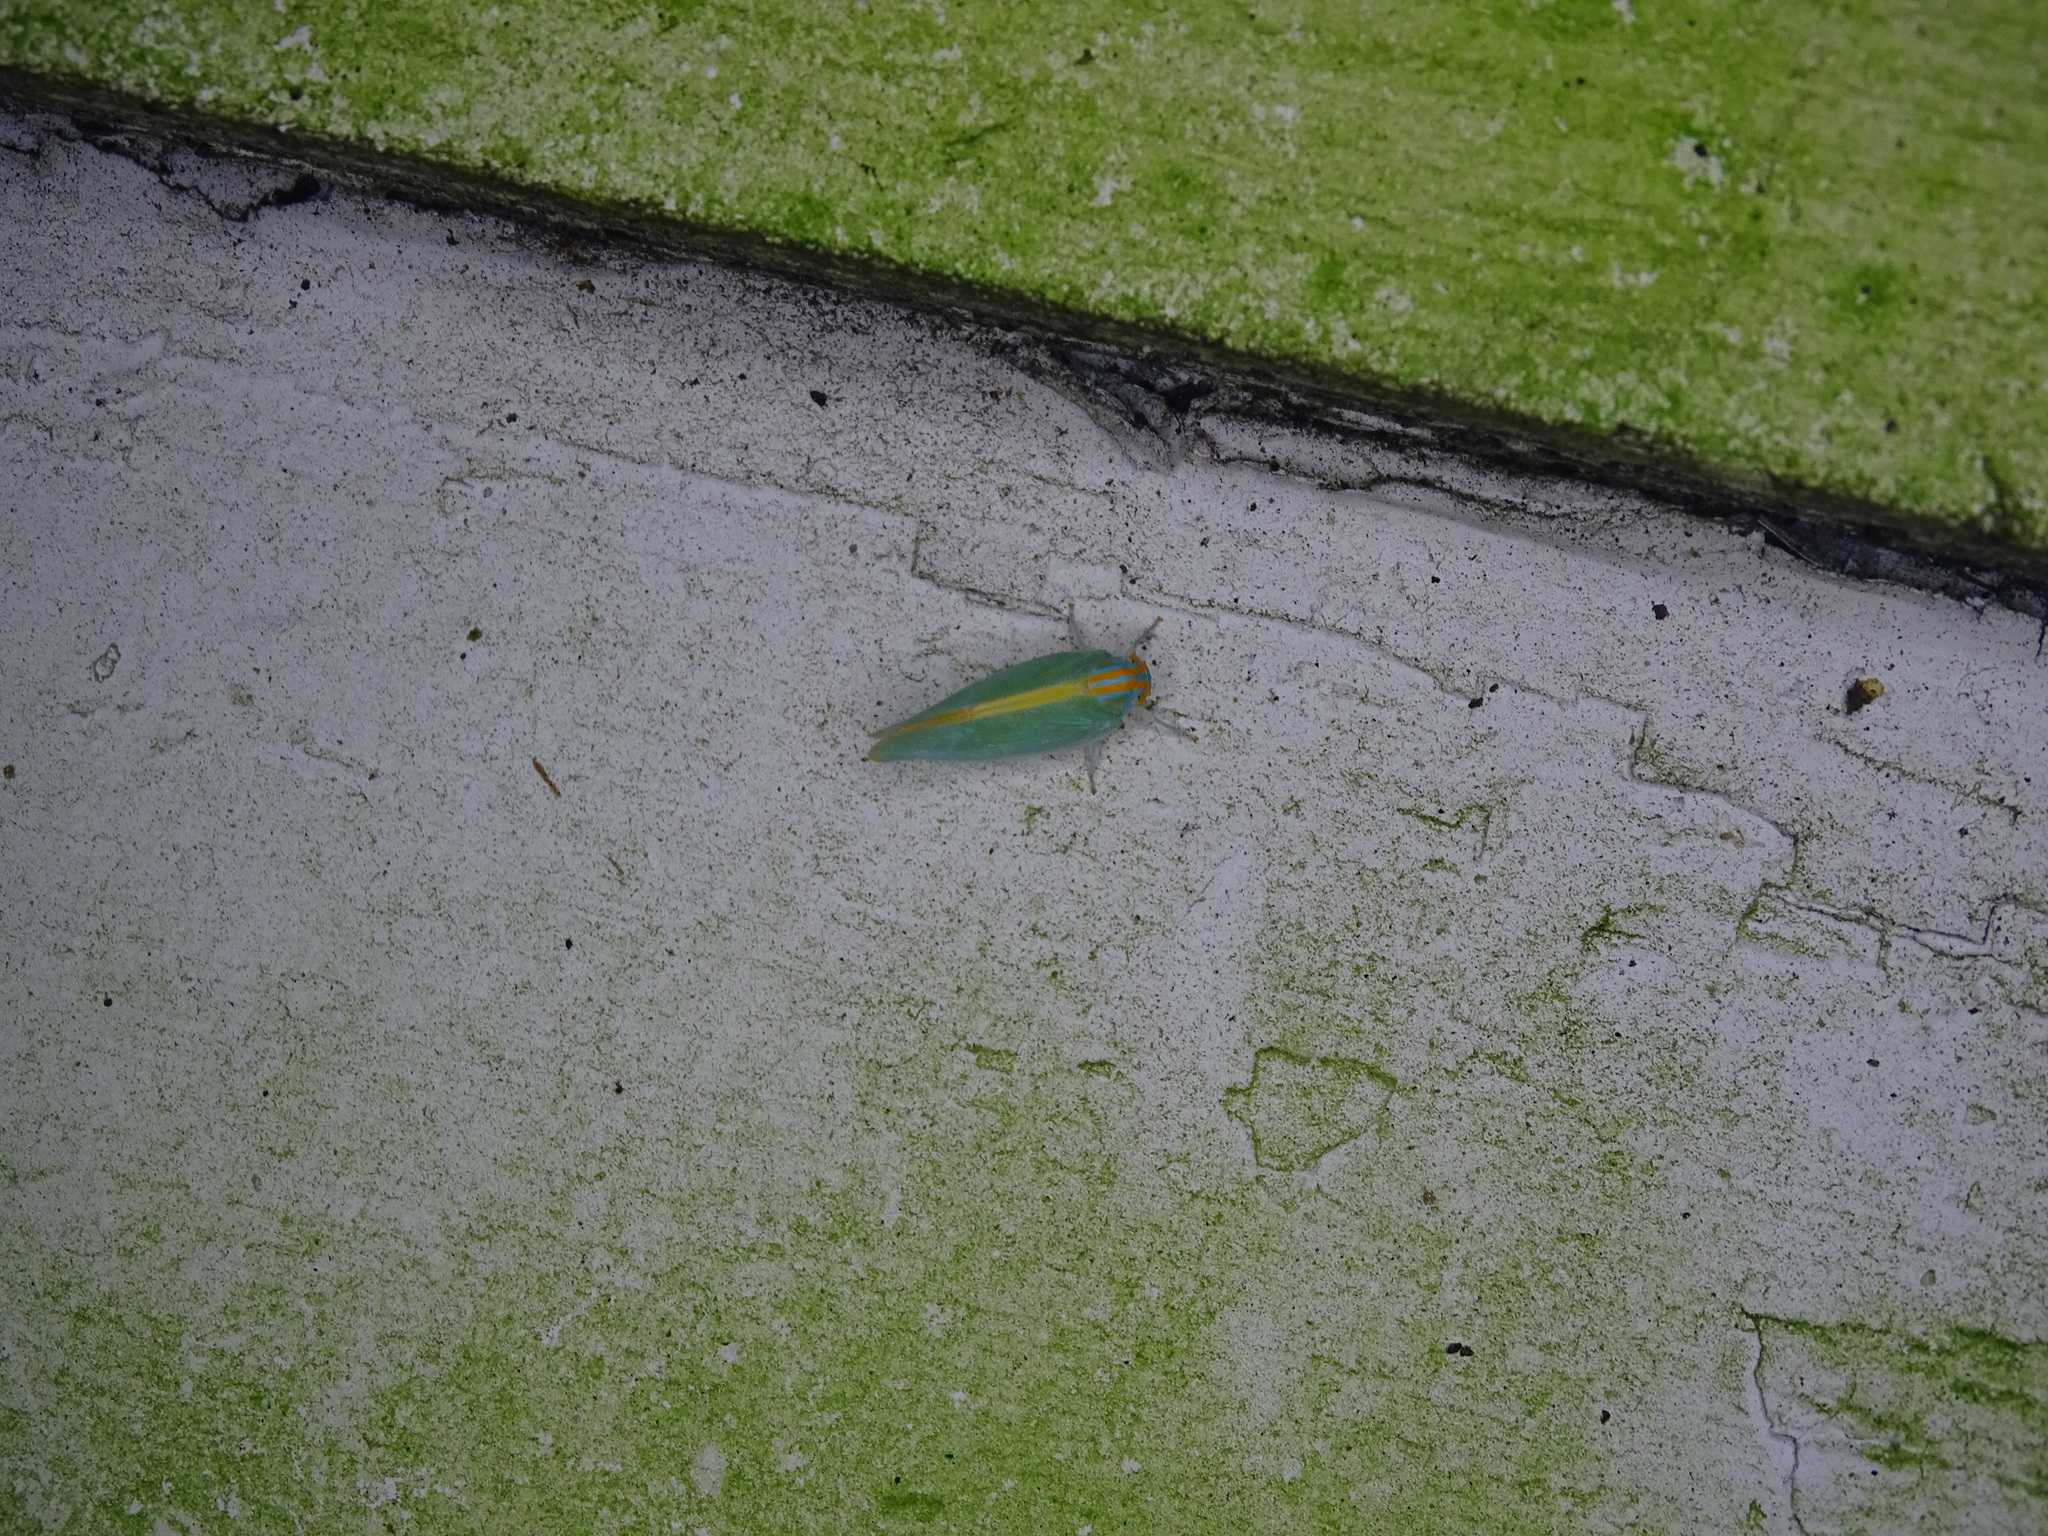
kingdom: Animalia
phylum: Arthropoda
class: Insecta
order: Hemiptera
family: Flatidae
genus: Ormenaria
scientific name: Ormenaria rufifascia
